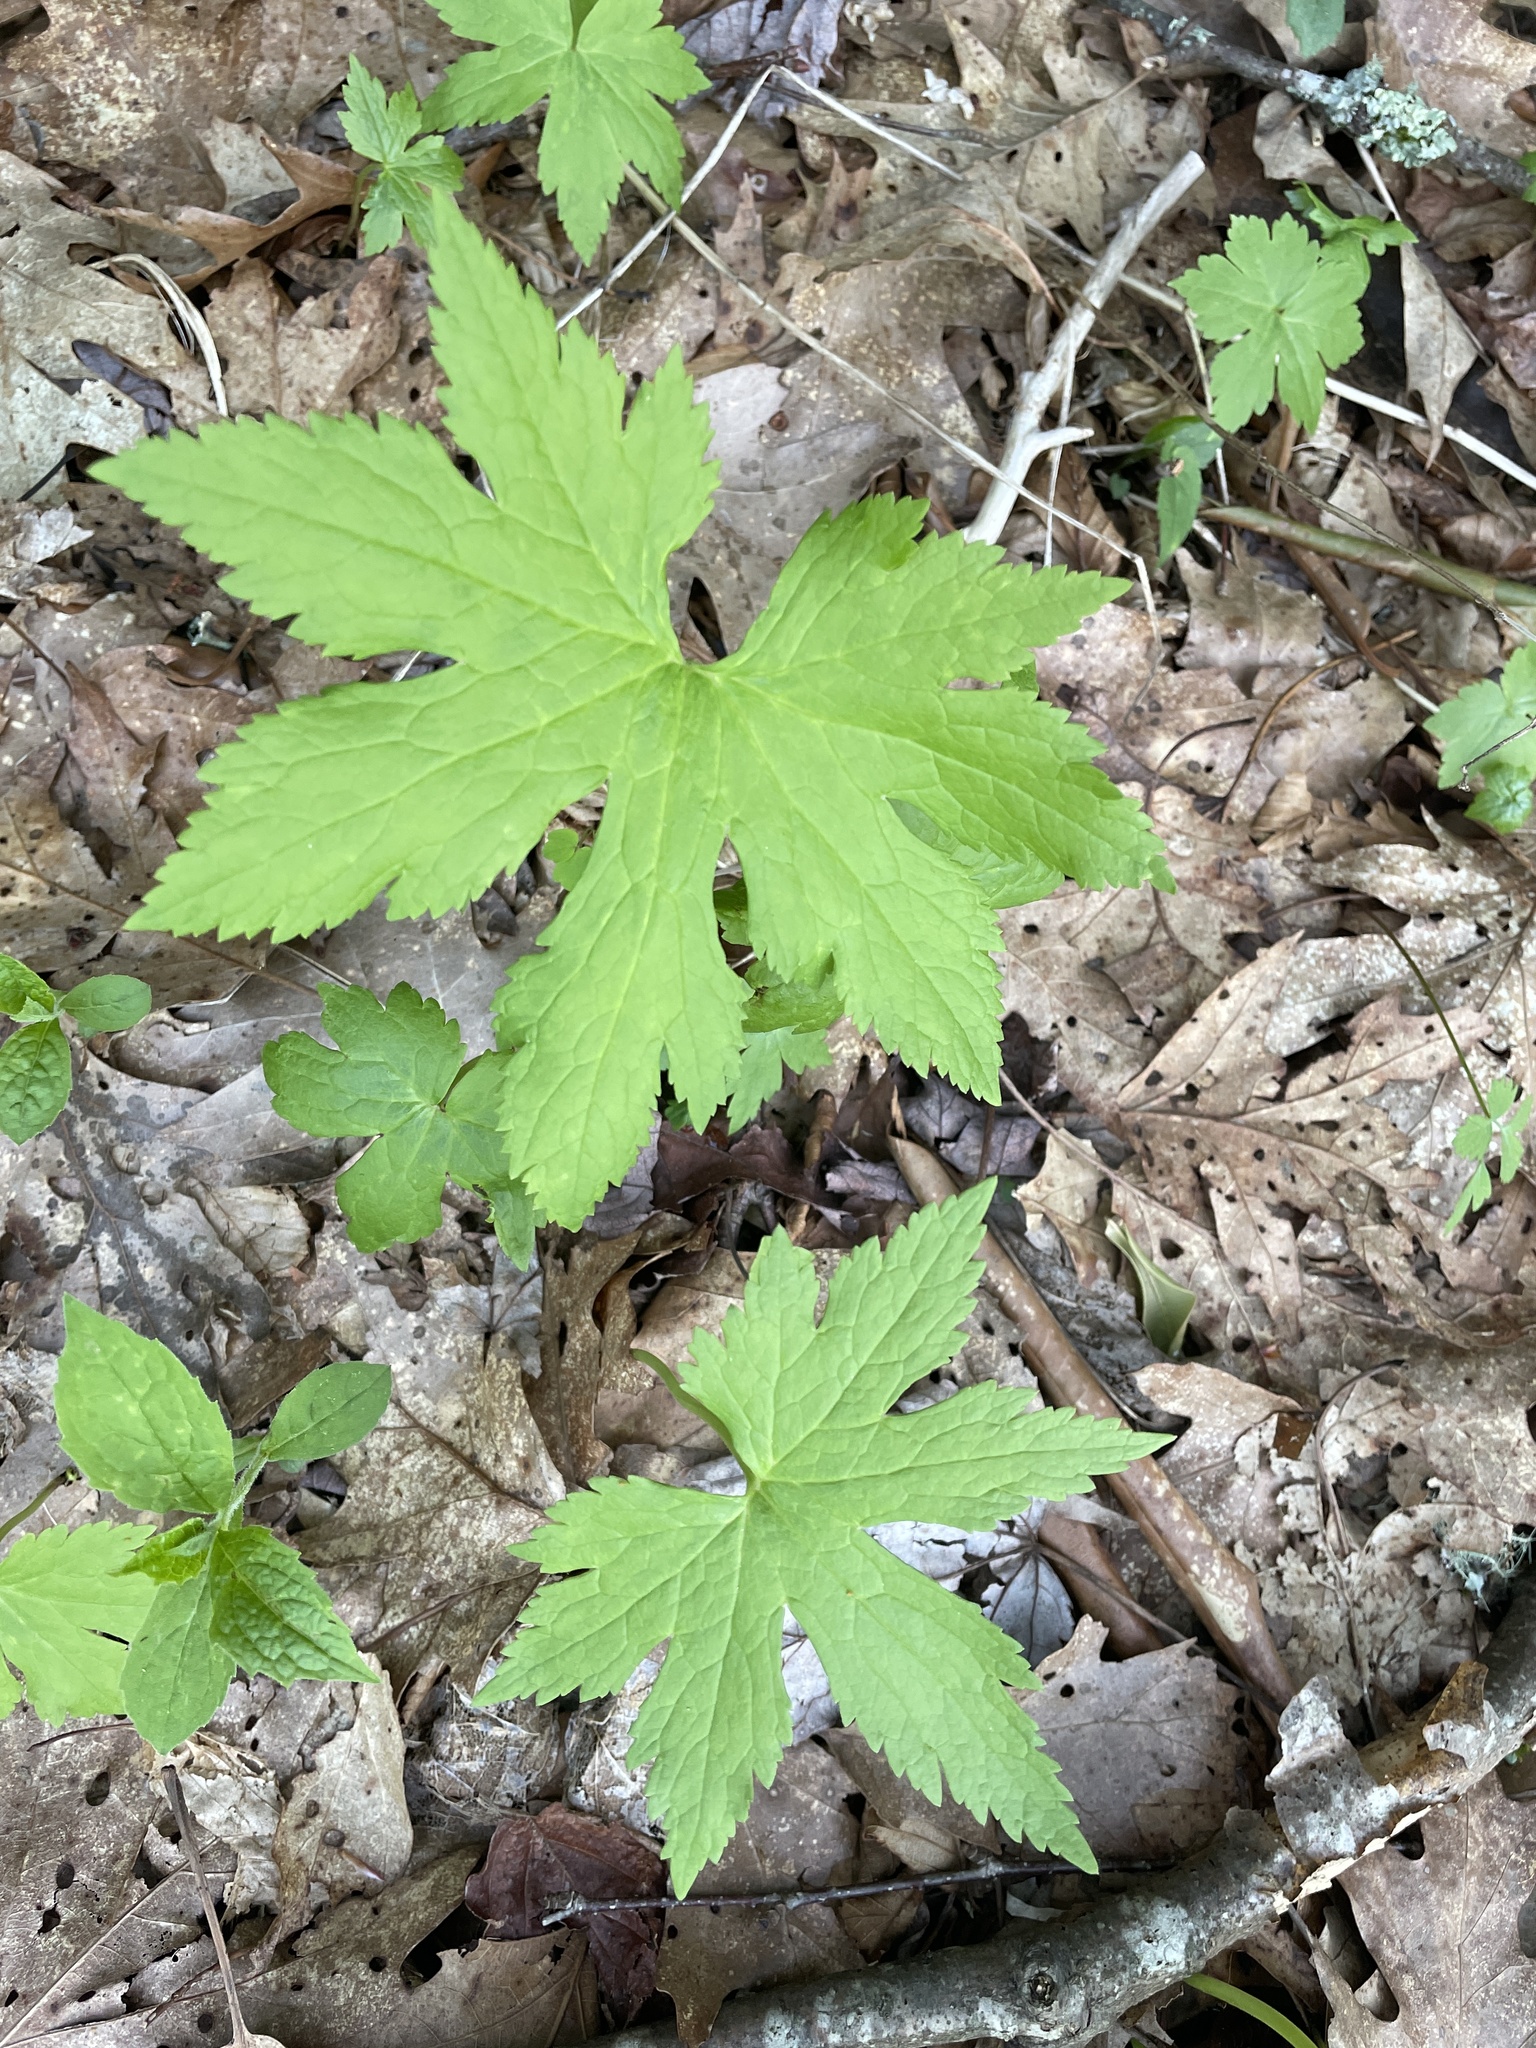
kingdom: Plantae
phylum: Tracheophyta
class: Magnoliopsida
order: Ranunculales
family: Ranunculaceae
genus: Trautvetteria
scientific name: Trautvetteria carolinensis
